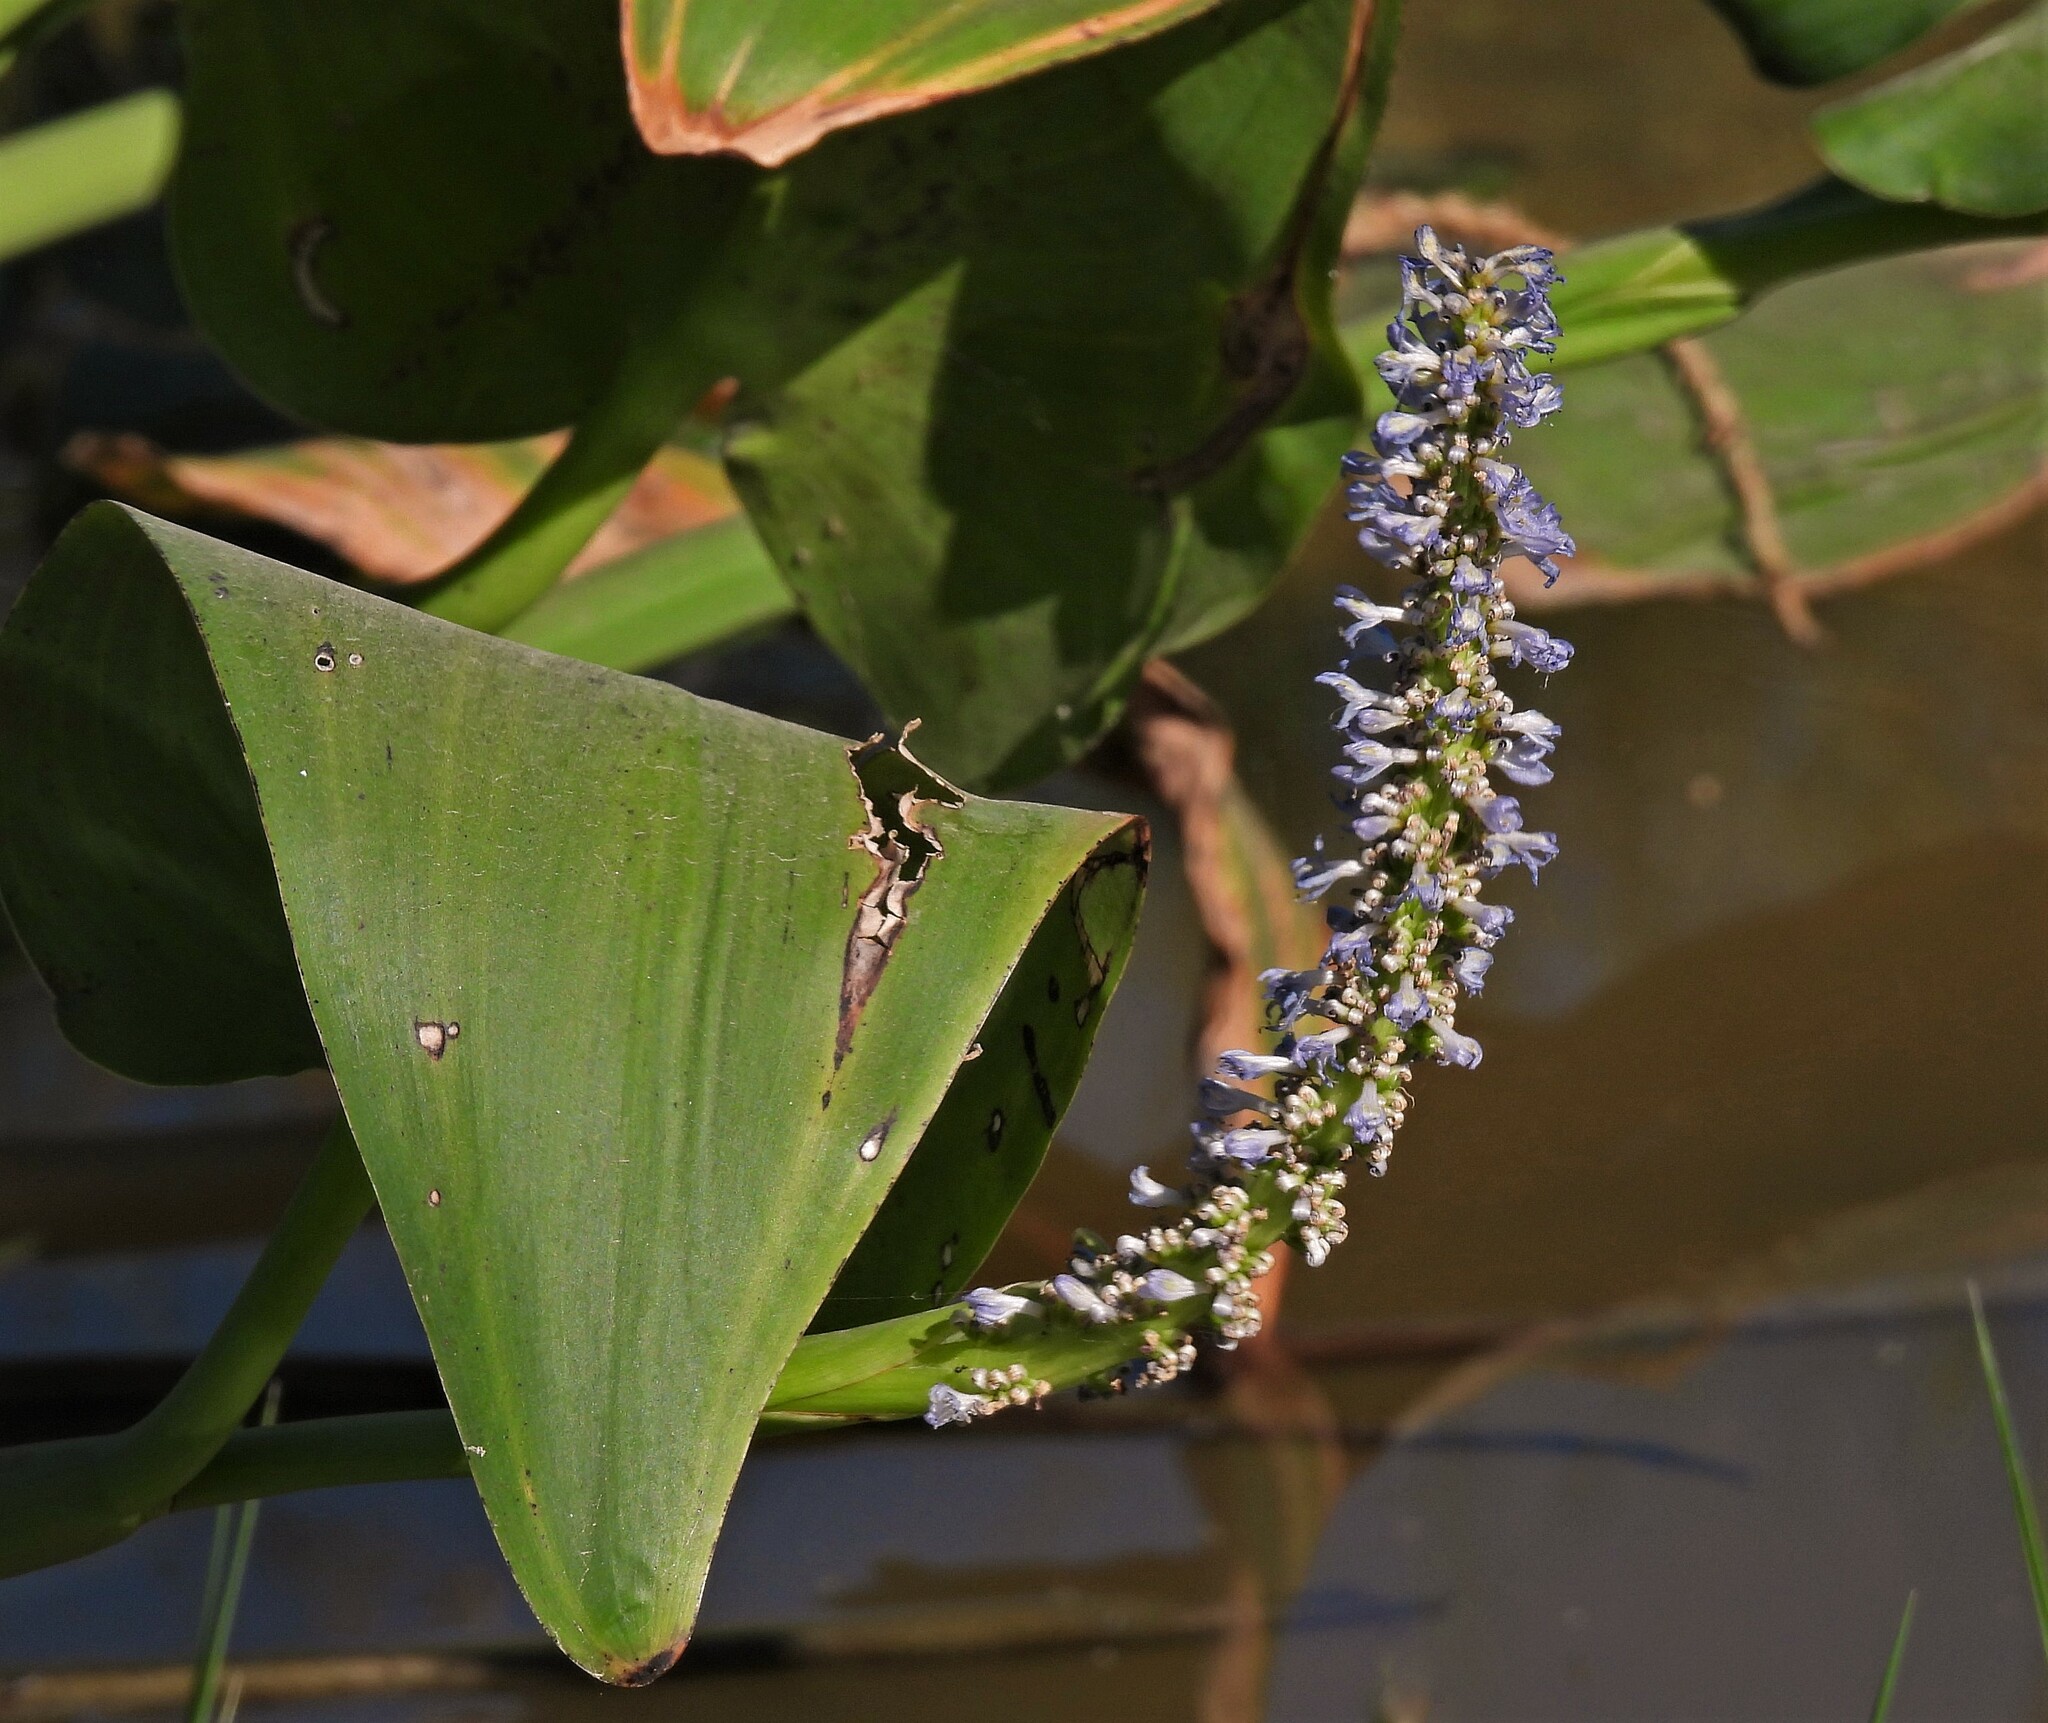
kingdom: Plantae
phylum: Tracheophyta
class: Liliopsida
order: Commelinales
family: Pontederiaceae
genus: Pontederia
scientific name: Pontederia cordata
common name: Pickerelweed
